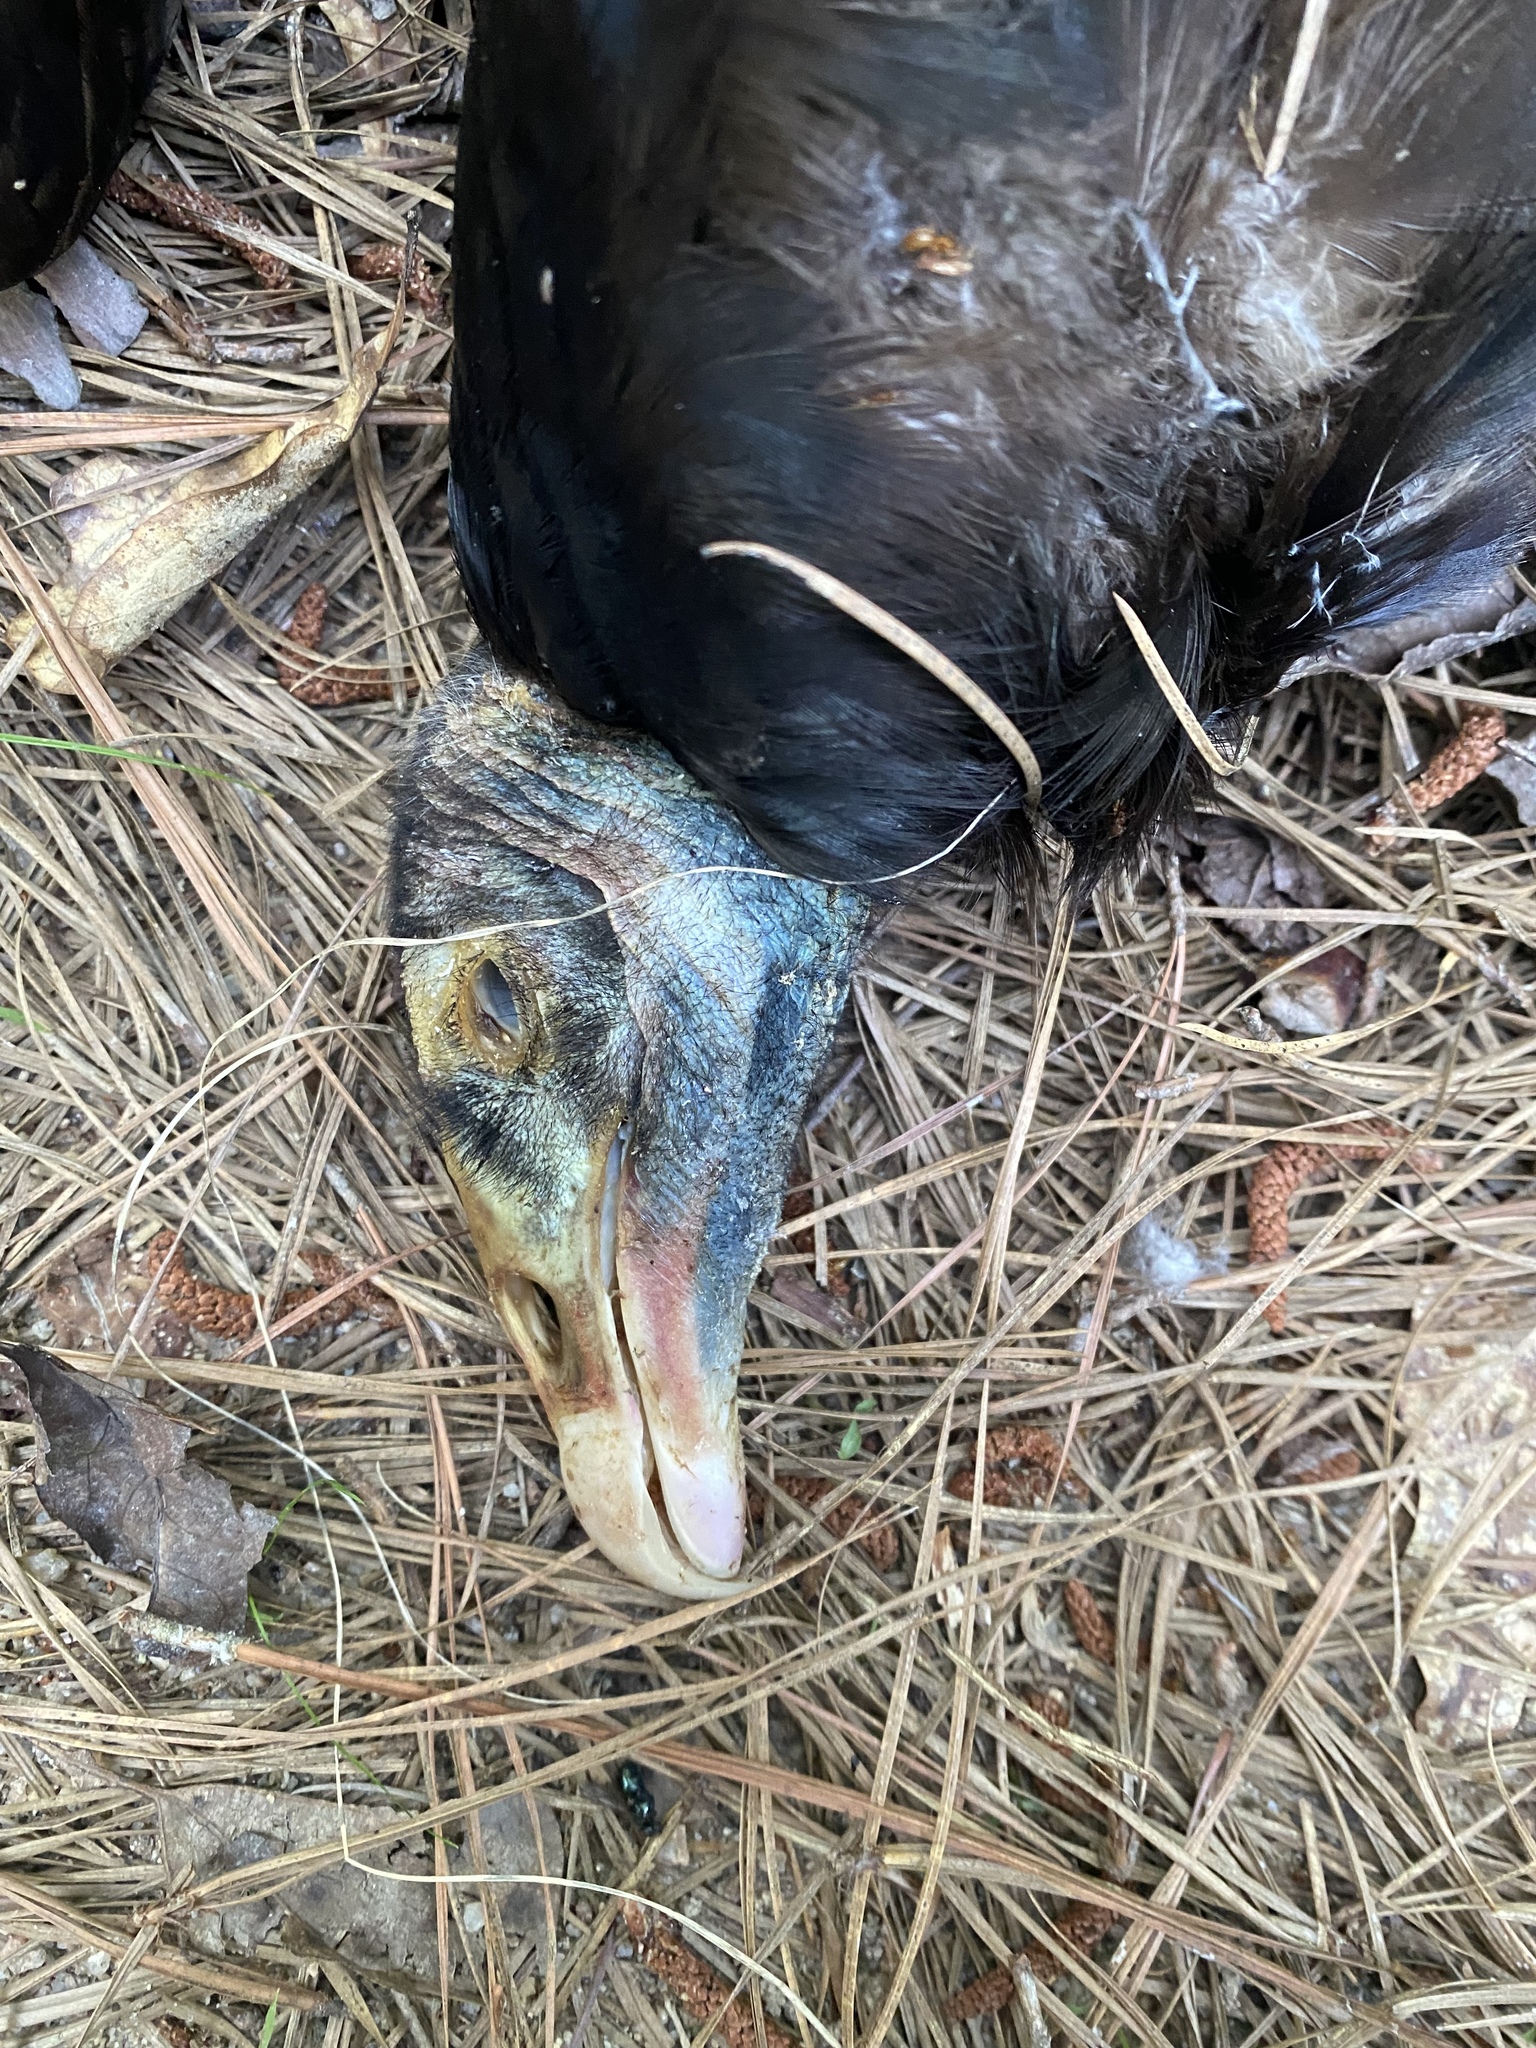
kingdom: Animalia
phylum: Chordata
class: Aves
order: Accipitriformes
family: Cathartidae
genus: Cathartes
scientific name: Cathartes aura
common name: Turkey vulture
